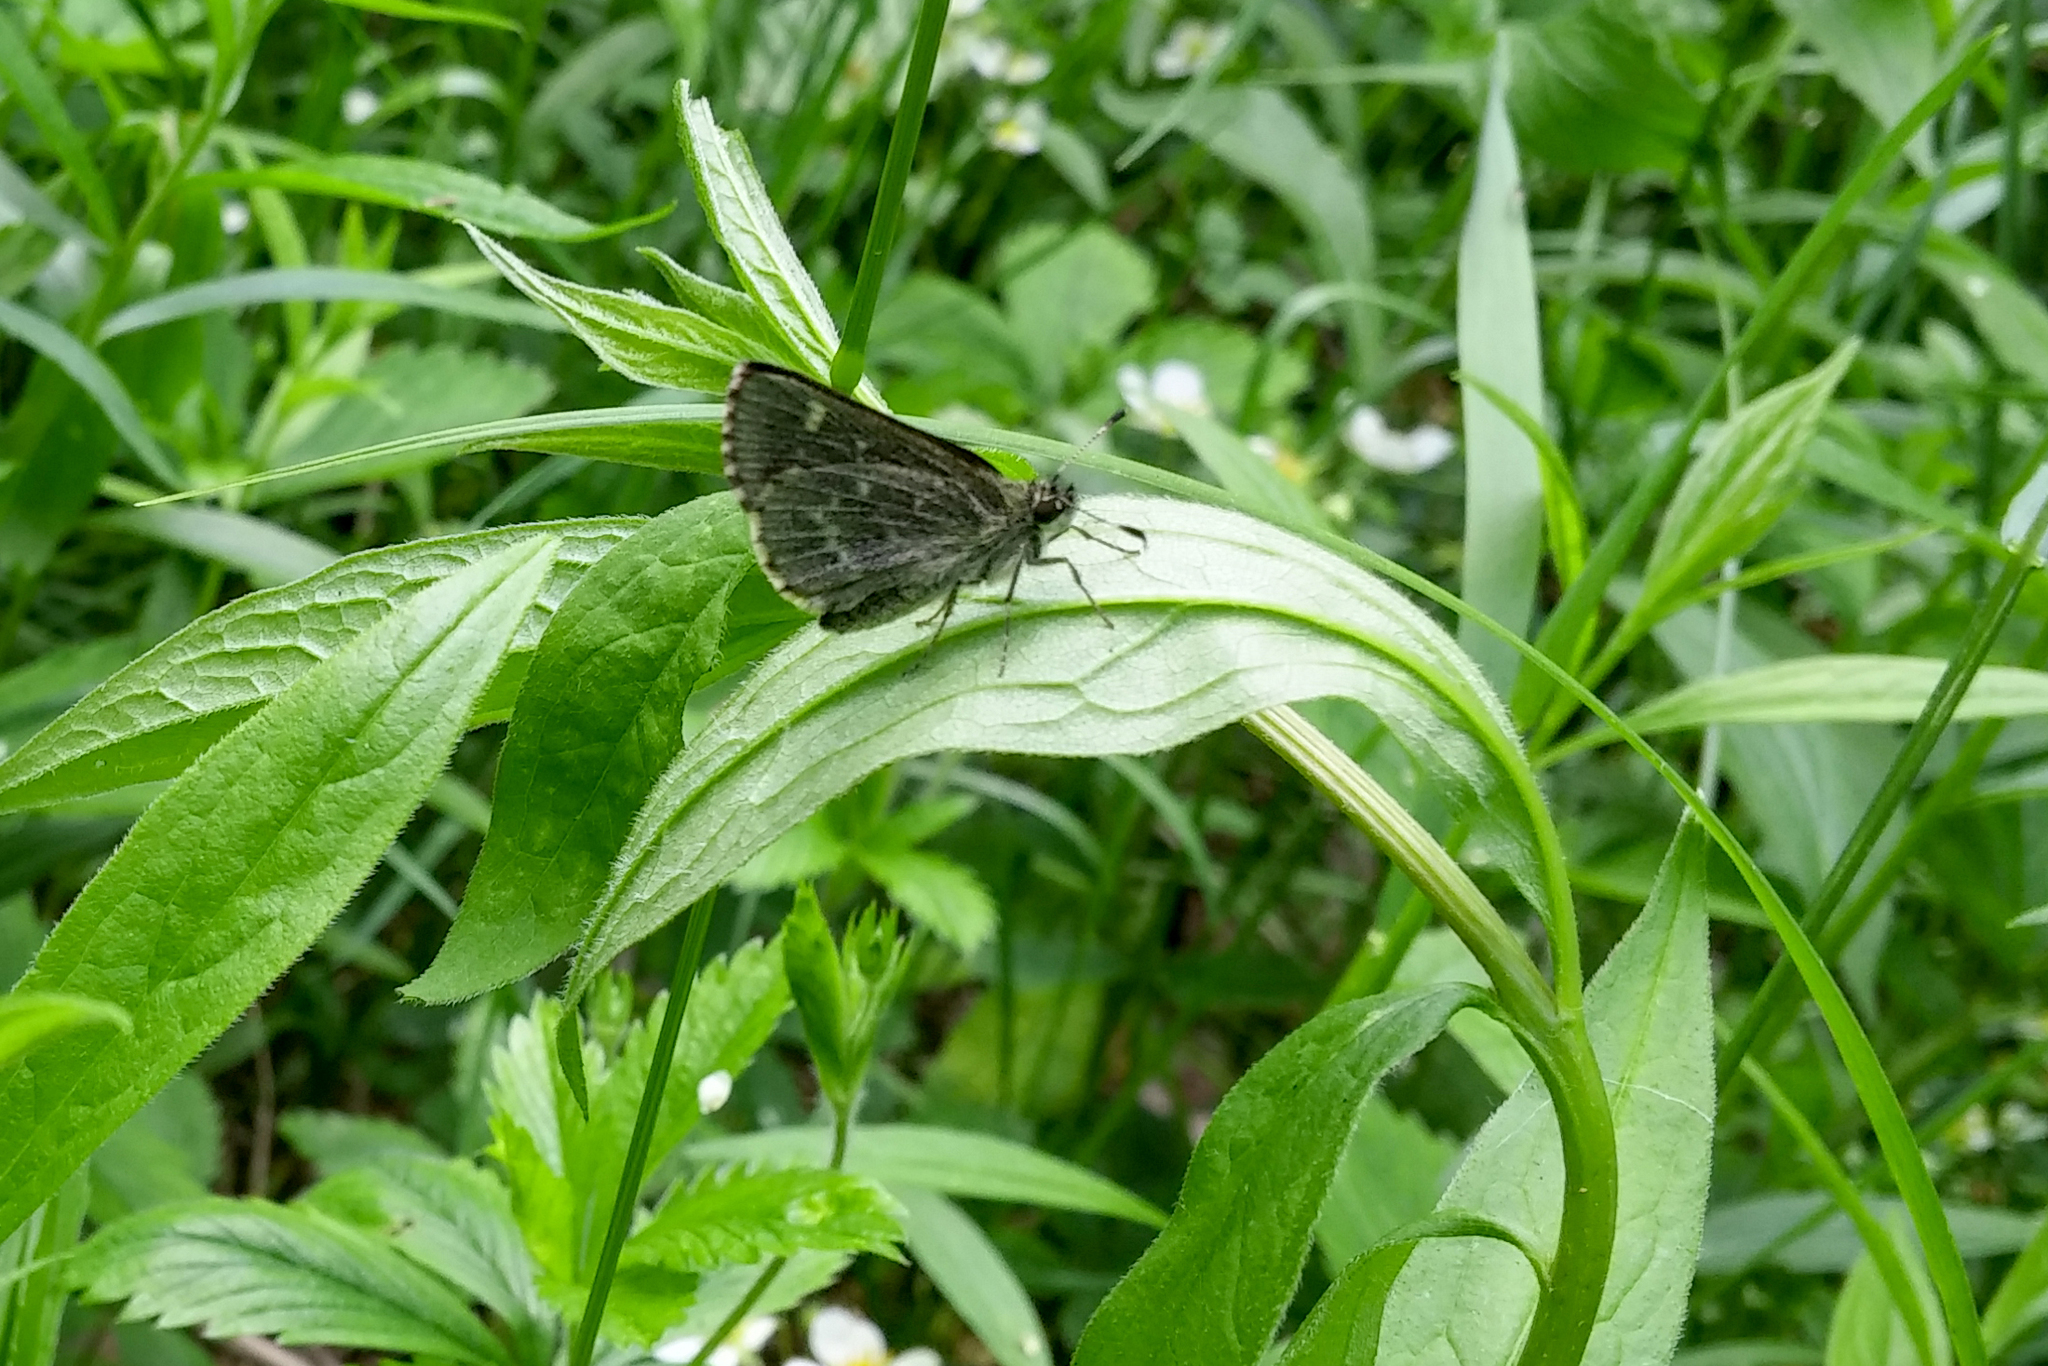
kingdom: Animalia
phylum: Arthropoda
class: Insecta
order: Lepidoptera
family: Hesperiidae
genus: Mastor
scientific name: Mastor hegon
